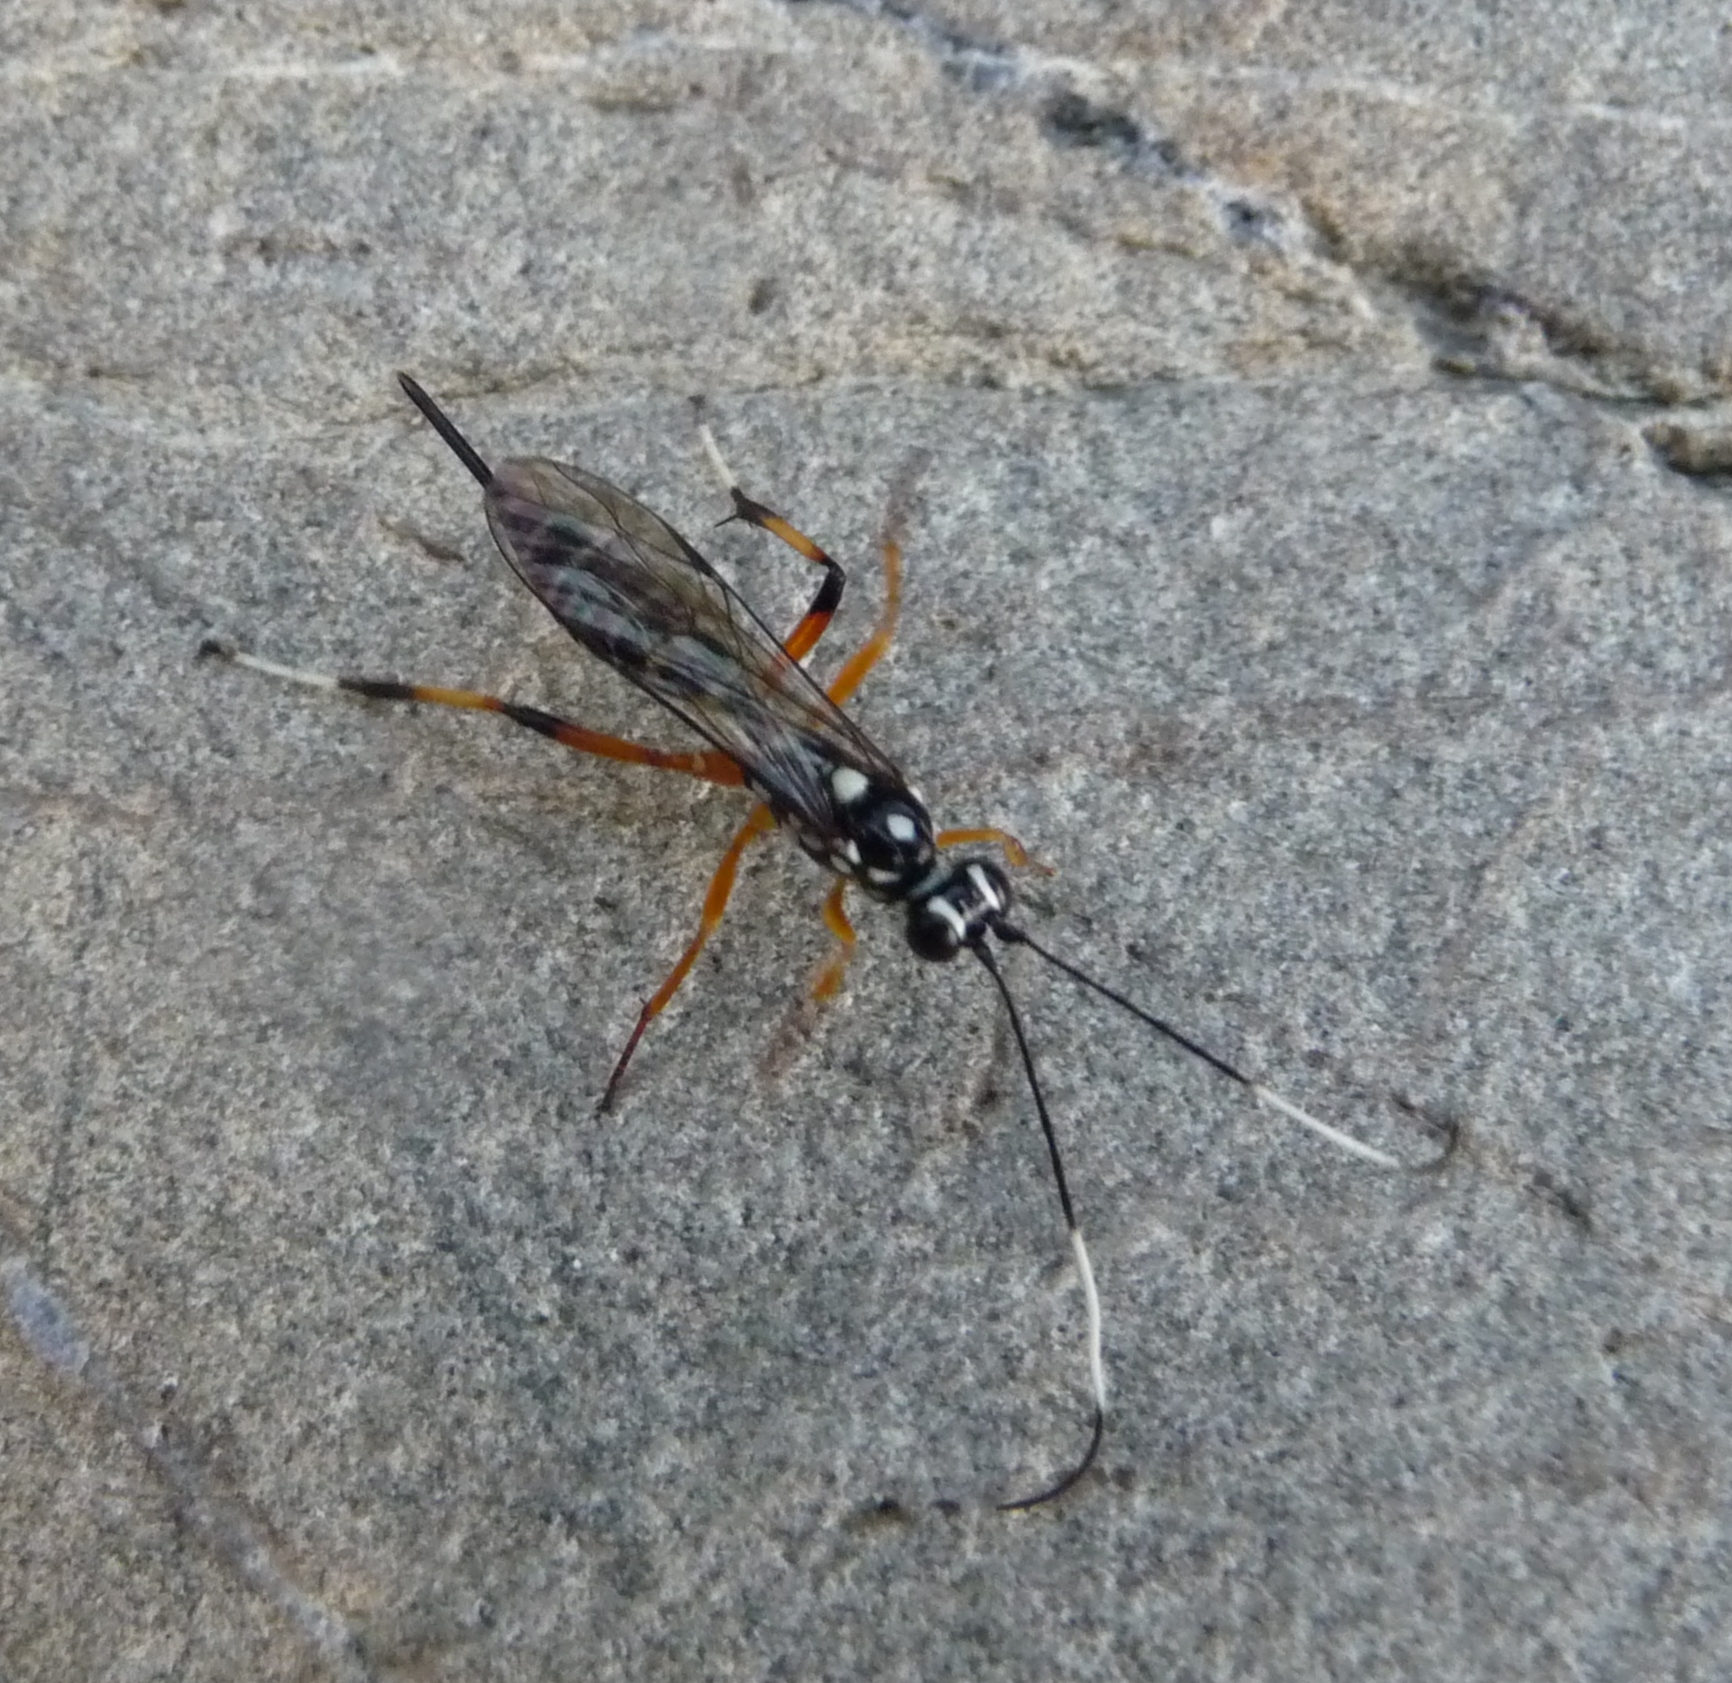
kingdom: Animalia
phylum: Arthropoda
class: Insecta
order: Hymenoptera
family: Ichneumonidae
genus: Xanthocryptus
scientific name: Xanthocryptus novozealandicus
